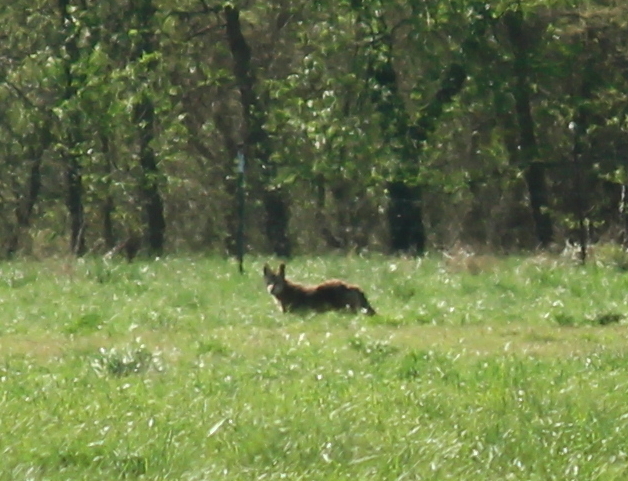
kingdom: Animalia
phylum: Chordata
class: Mammalia
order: Carnivora
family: Canidae
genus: Canis
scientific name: Canis latrans
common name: Coyote
